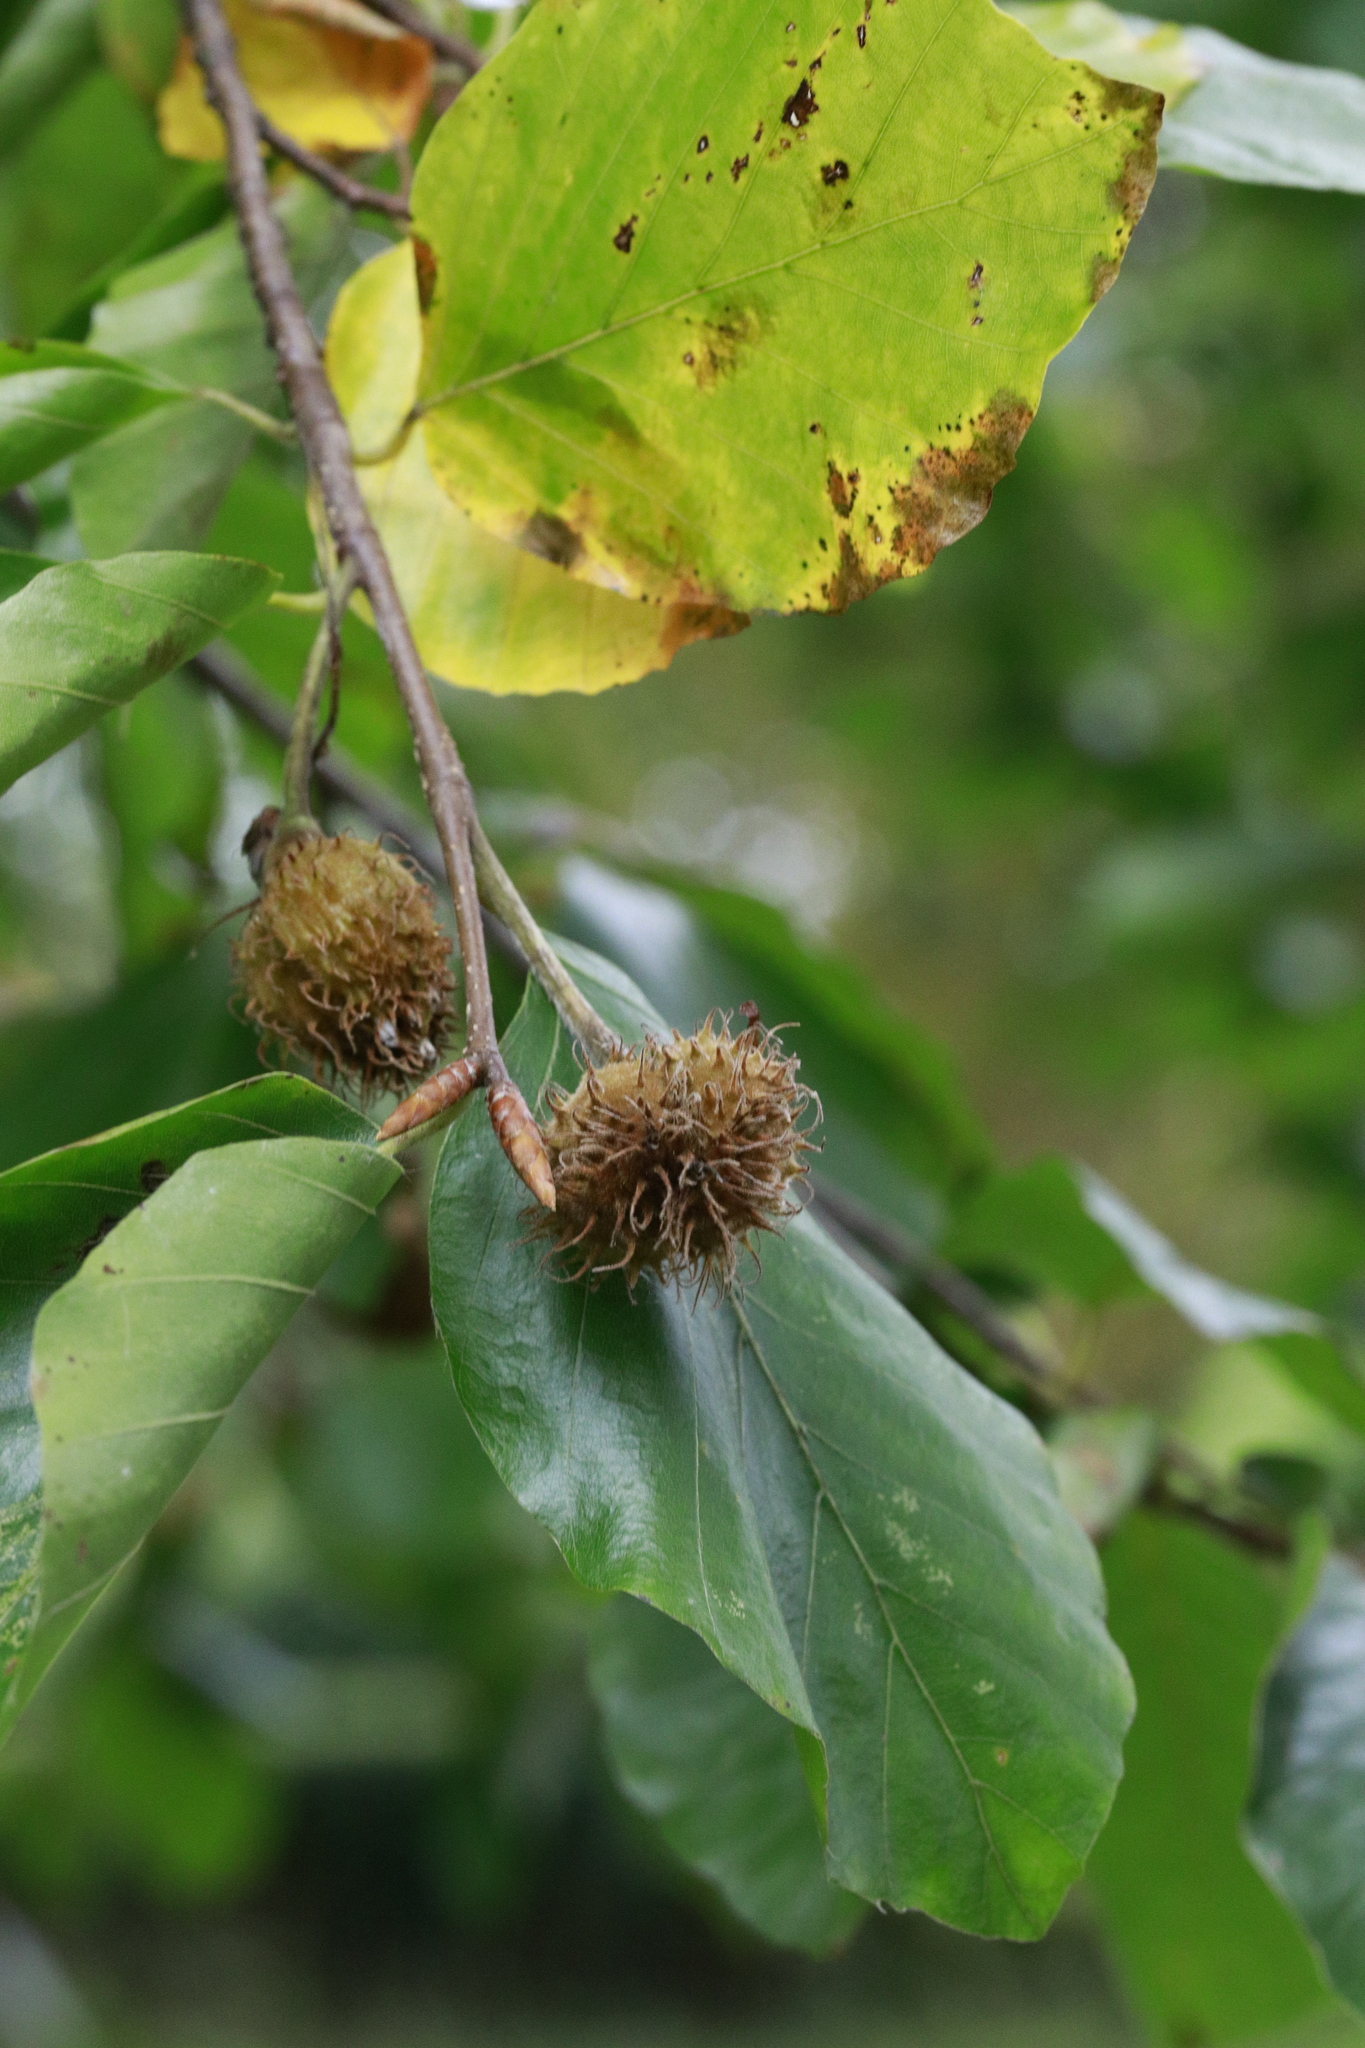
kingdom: Plantae
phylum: Tracheophyta
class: Magnoliopsida
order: Fagales
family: Fagaceae
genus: Fagus
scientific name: Fagus sylvatica
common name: Beech
